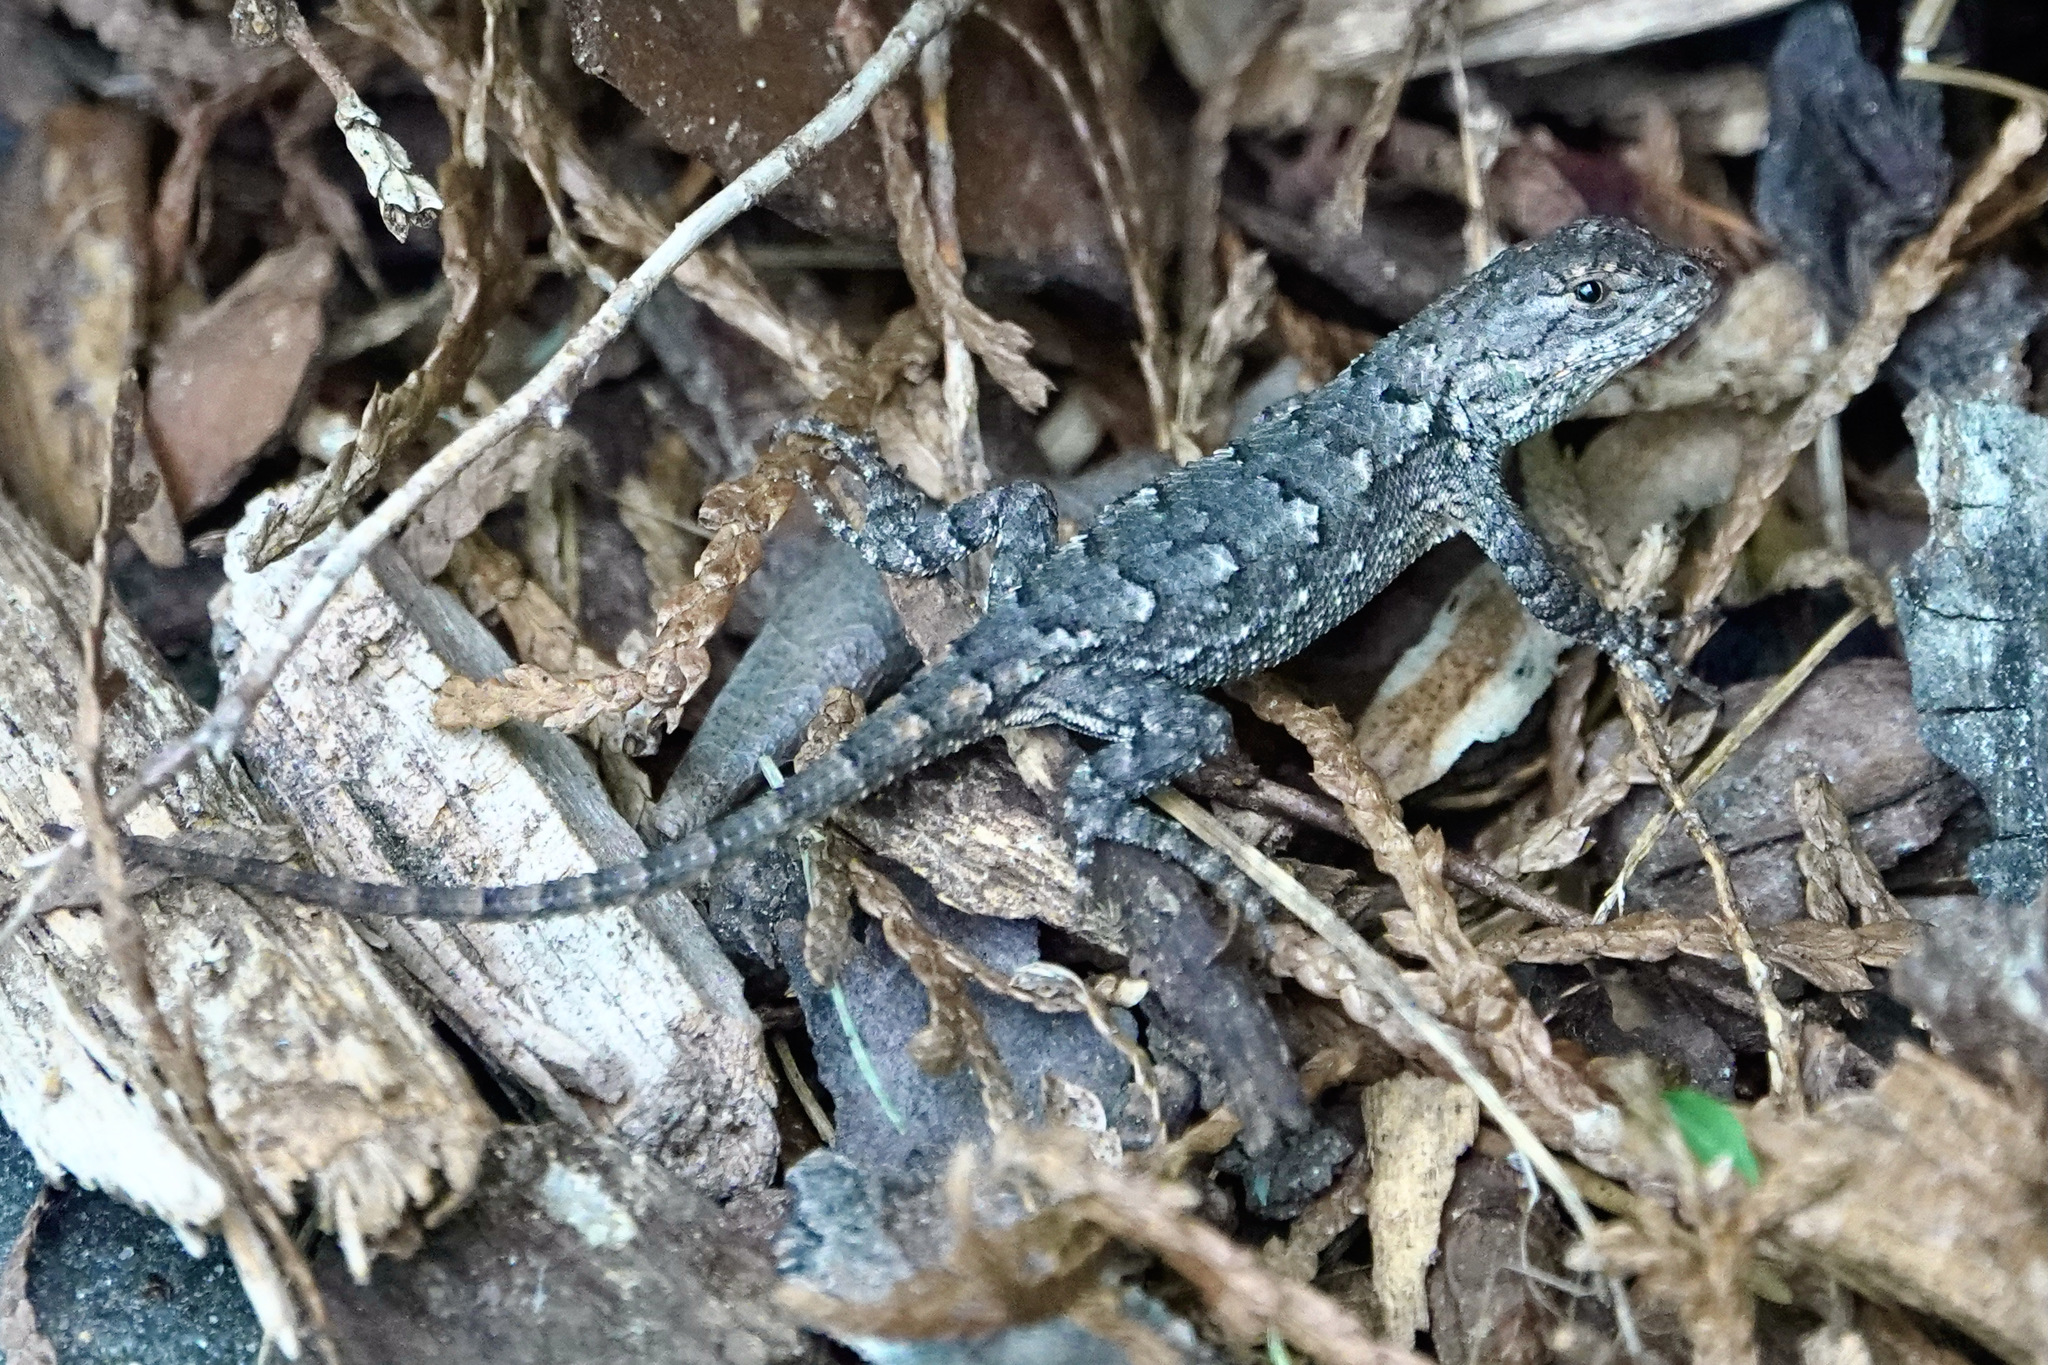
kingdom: Animalia
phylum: Chordata
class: Squamata
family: Phrynosomatidae
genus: Sceloporus
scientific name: Sceloporus undulatus
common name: Eastern fence lizard
